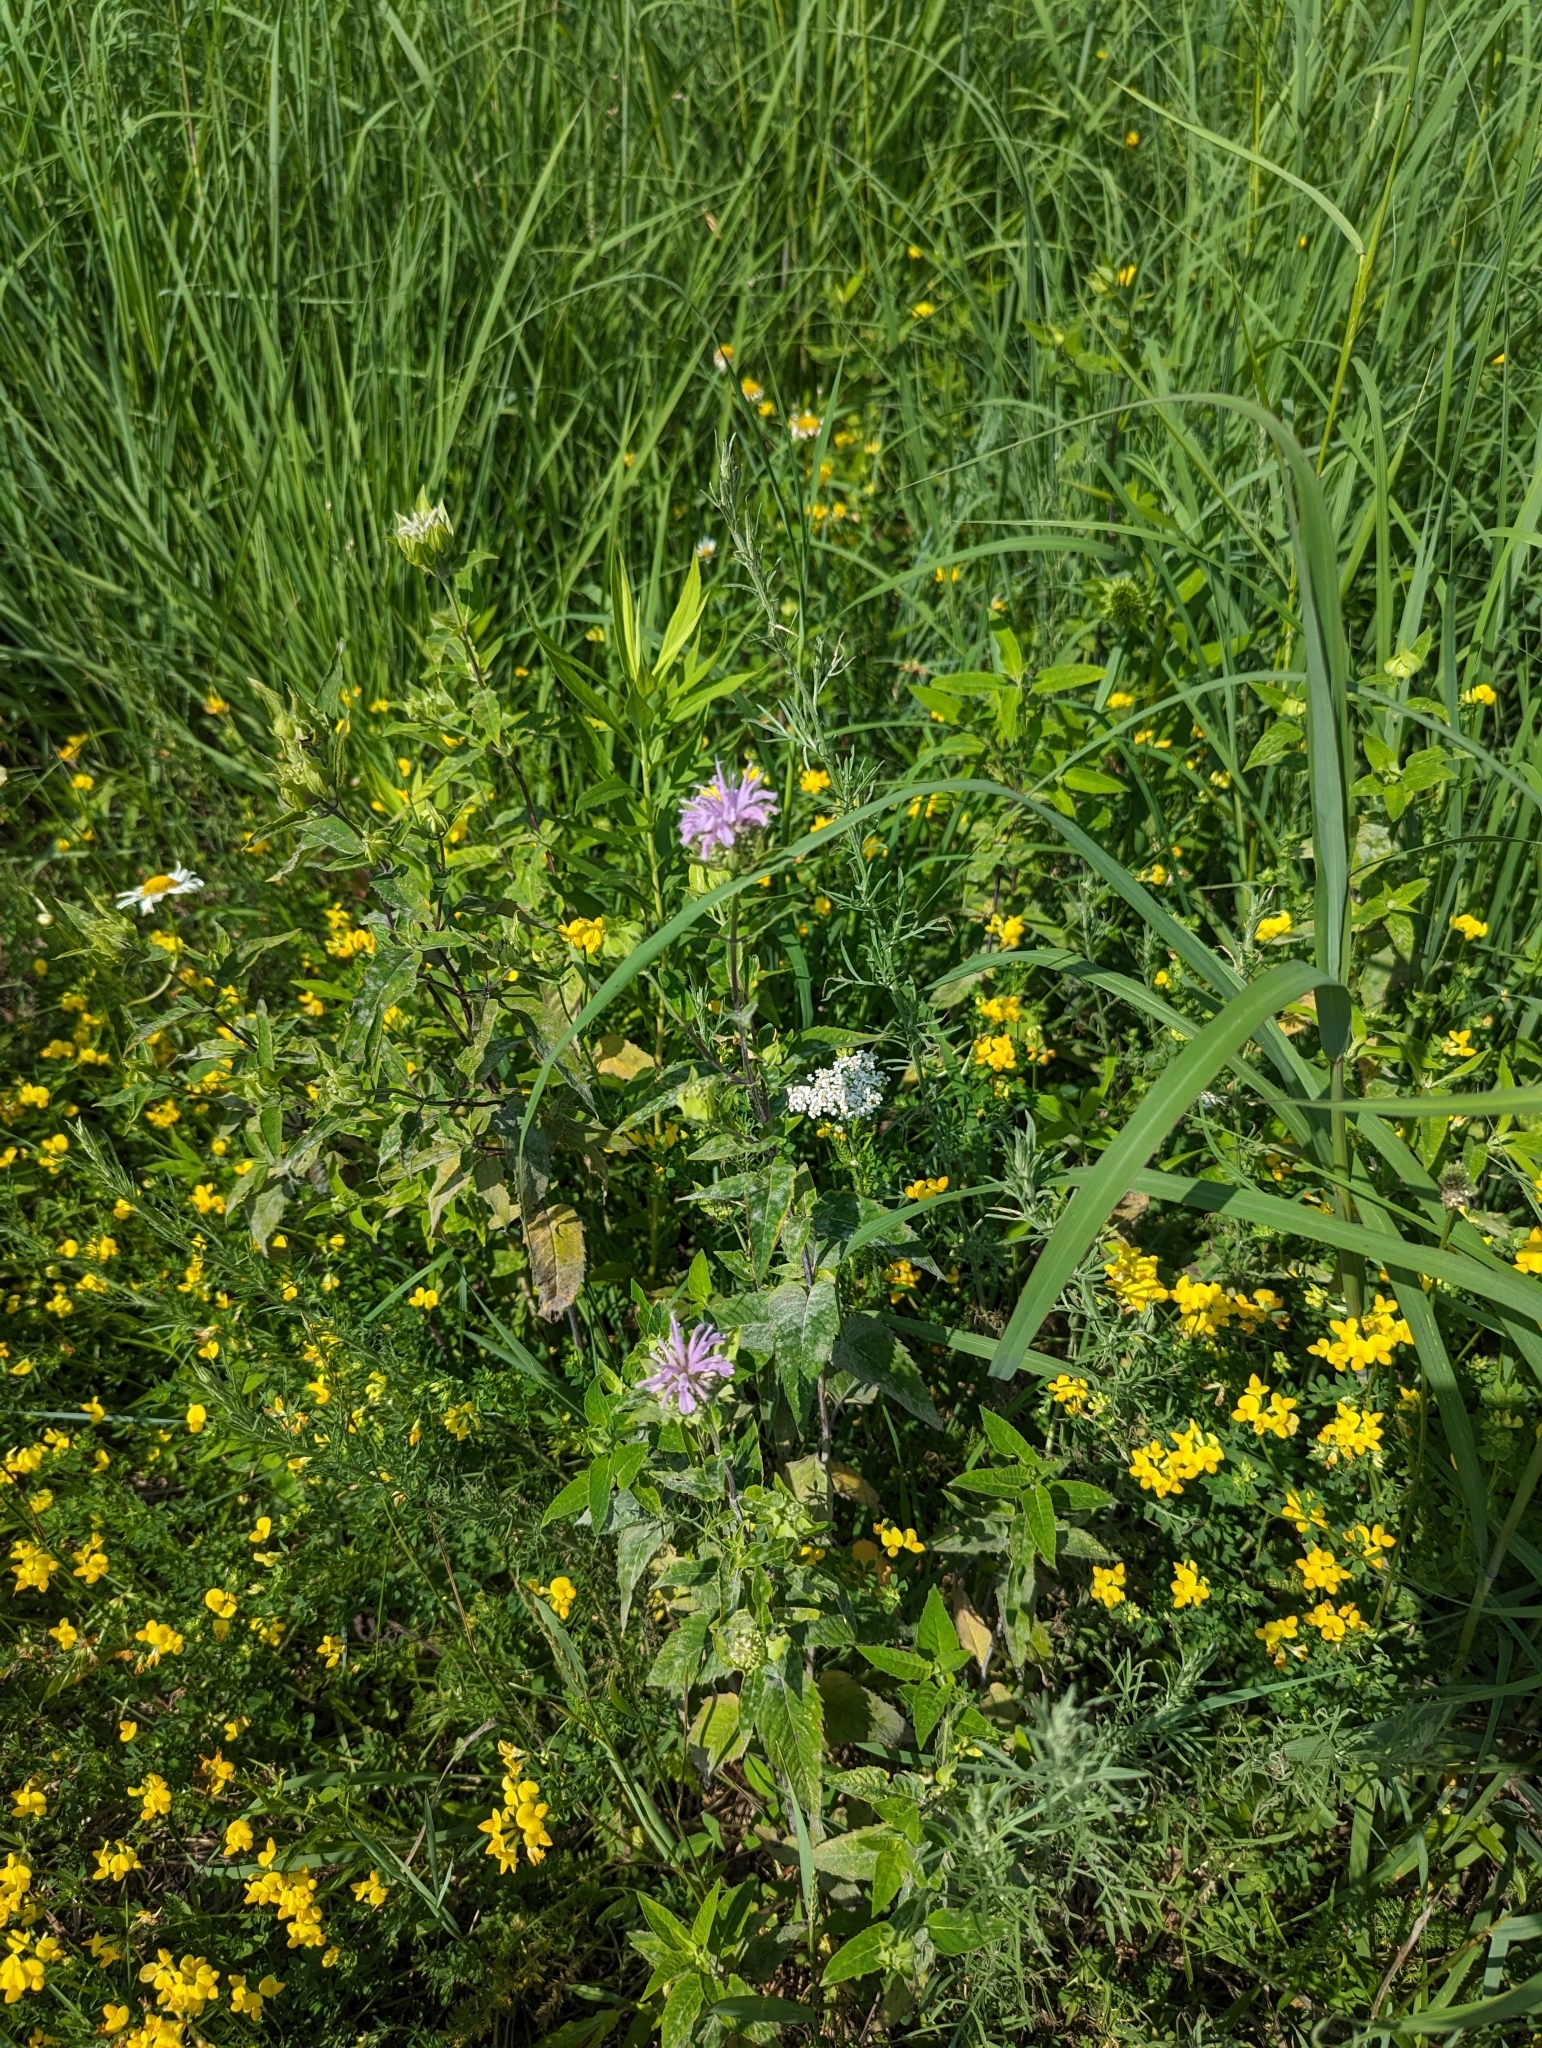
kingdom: Plantae
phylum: Tracheophyta
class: Magnoliopsida
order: Lamiales
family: Lamiaceae
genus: Monarda
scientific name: Monarda fistulosa
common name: Purple beebalm
